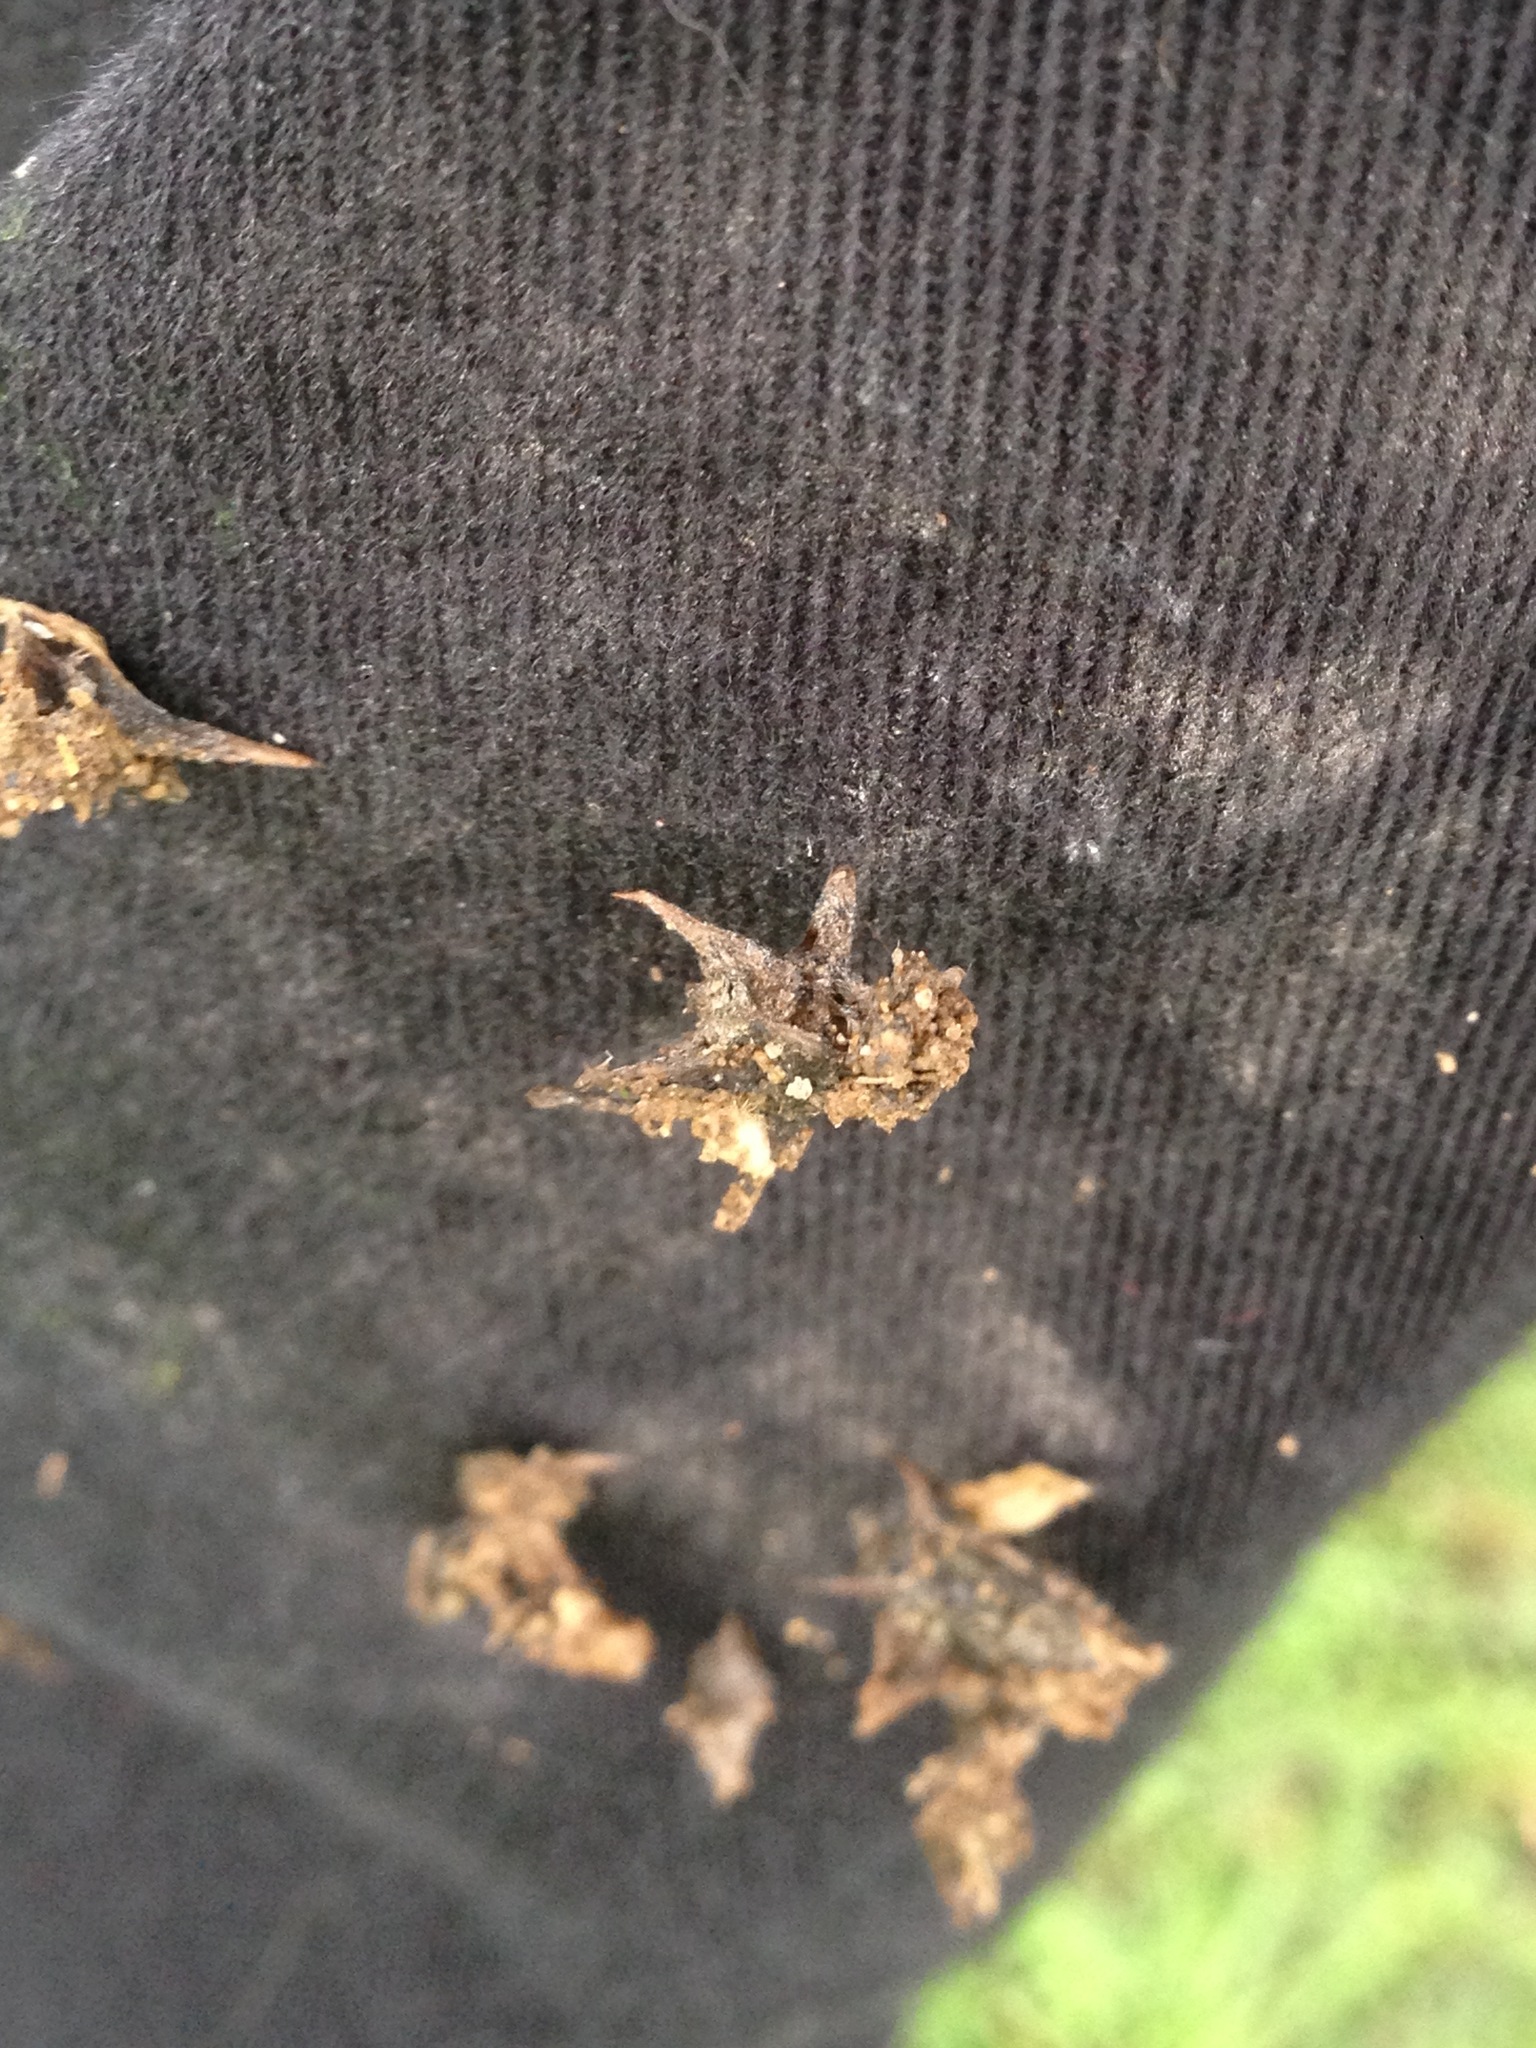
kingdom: Plantae
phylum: Tracheophyta
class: Magnoliopsida
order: Zygophyllales
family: Zygophyllaceae
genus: Tribulus
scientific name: Tribulus terrestris
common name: Puncturevine
